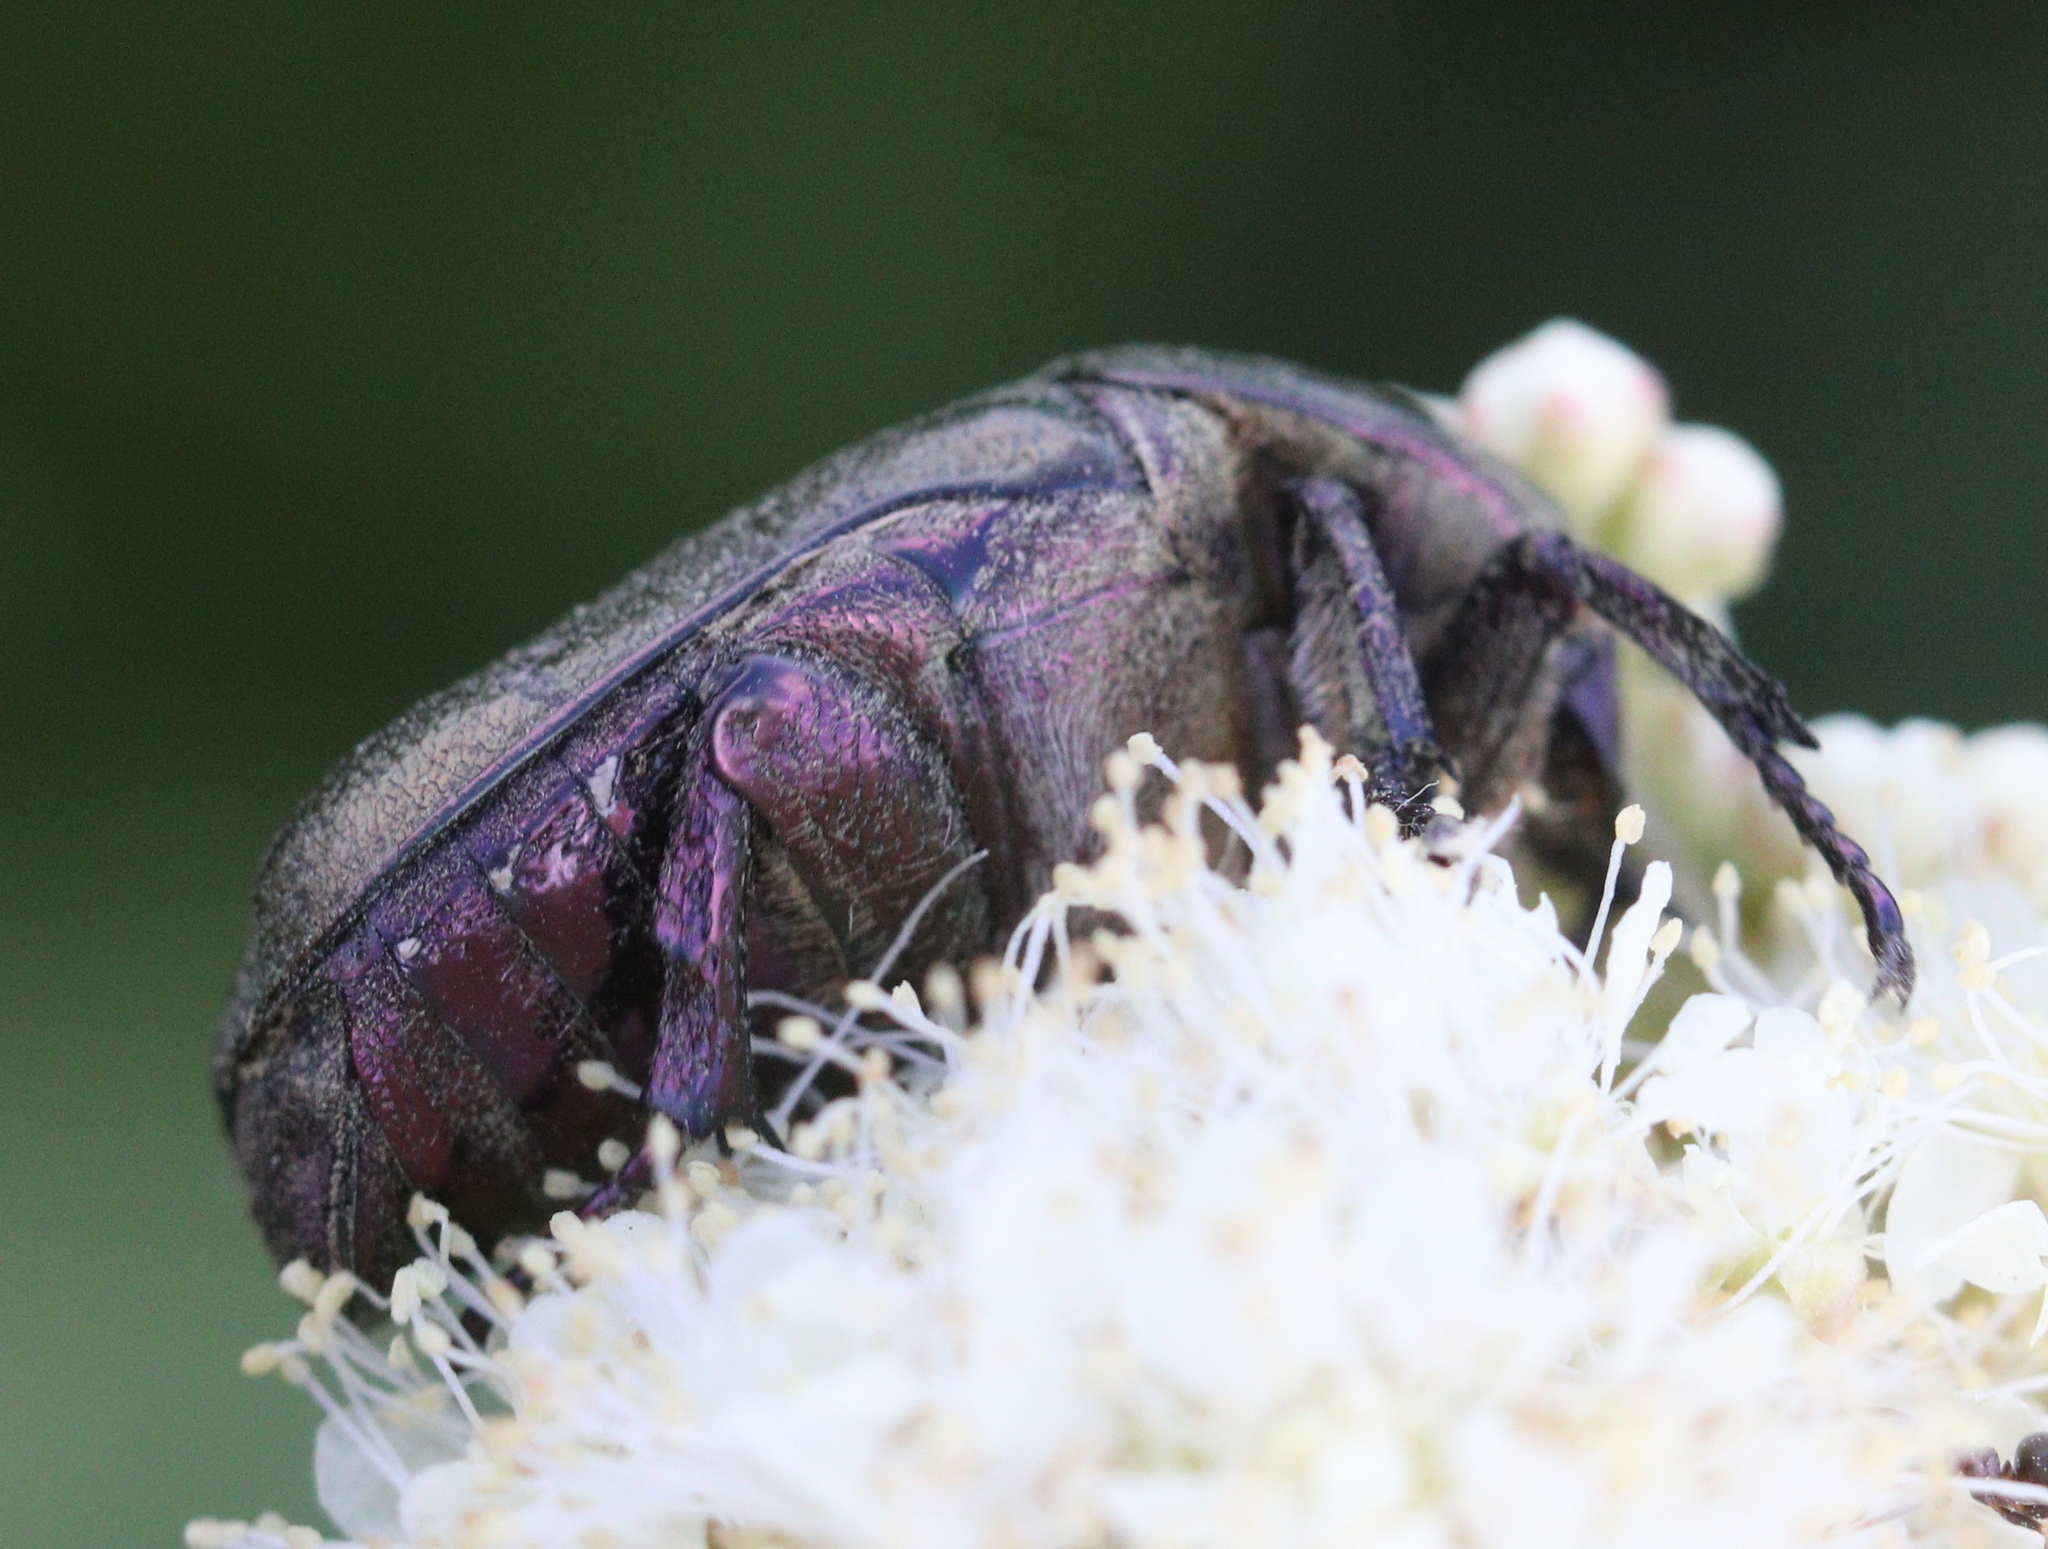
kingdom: Animalia
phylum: Arthropoda
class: Insecta
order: Coleoptera
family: Scarabaeidae
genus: Protaetia
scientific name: Protaetia cuprea
